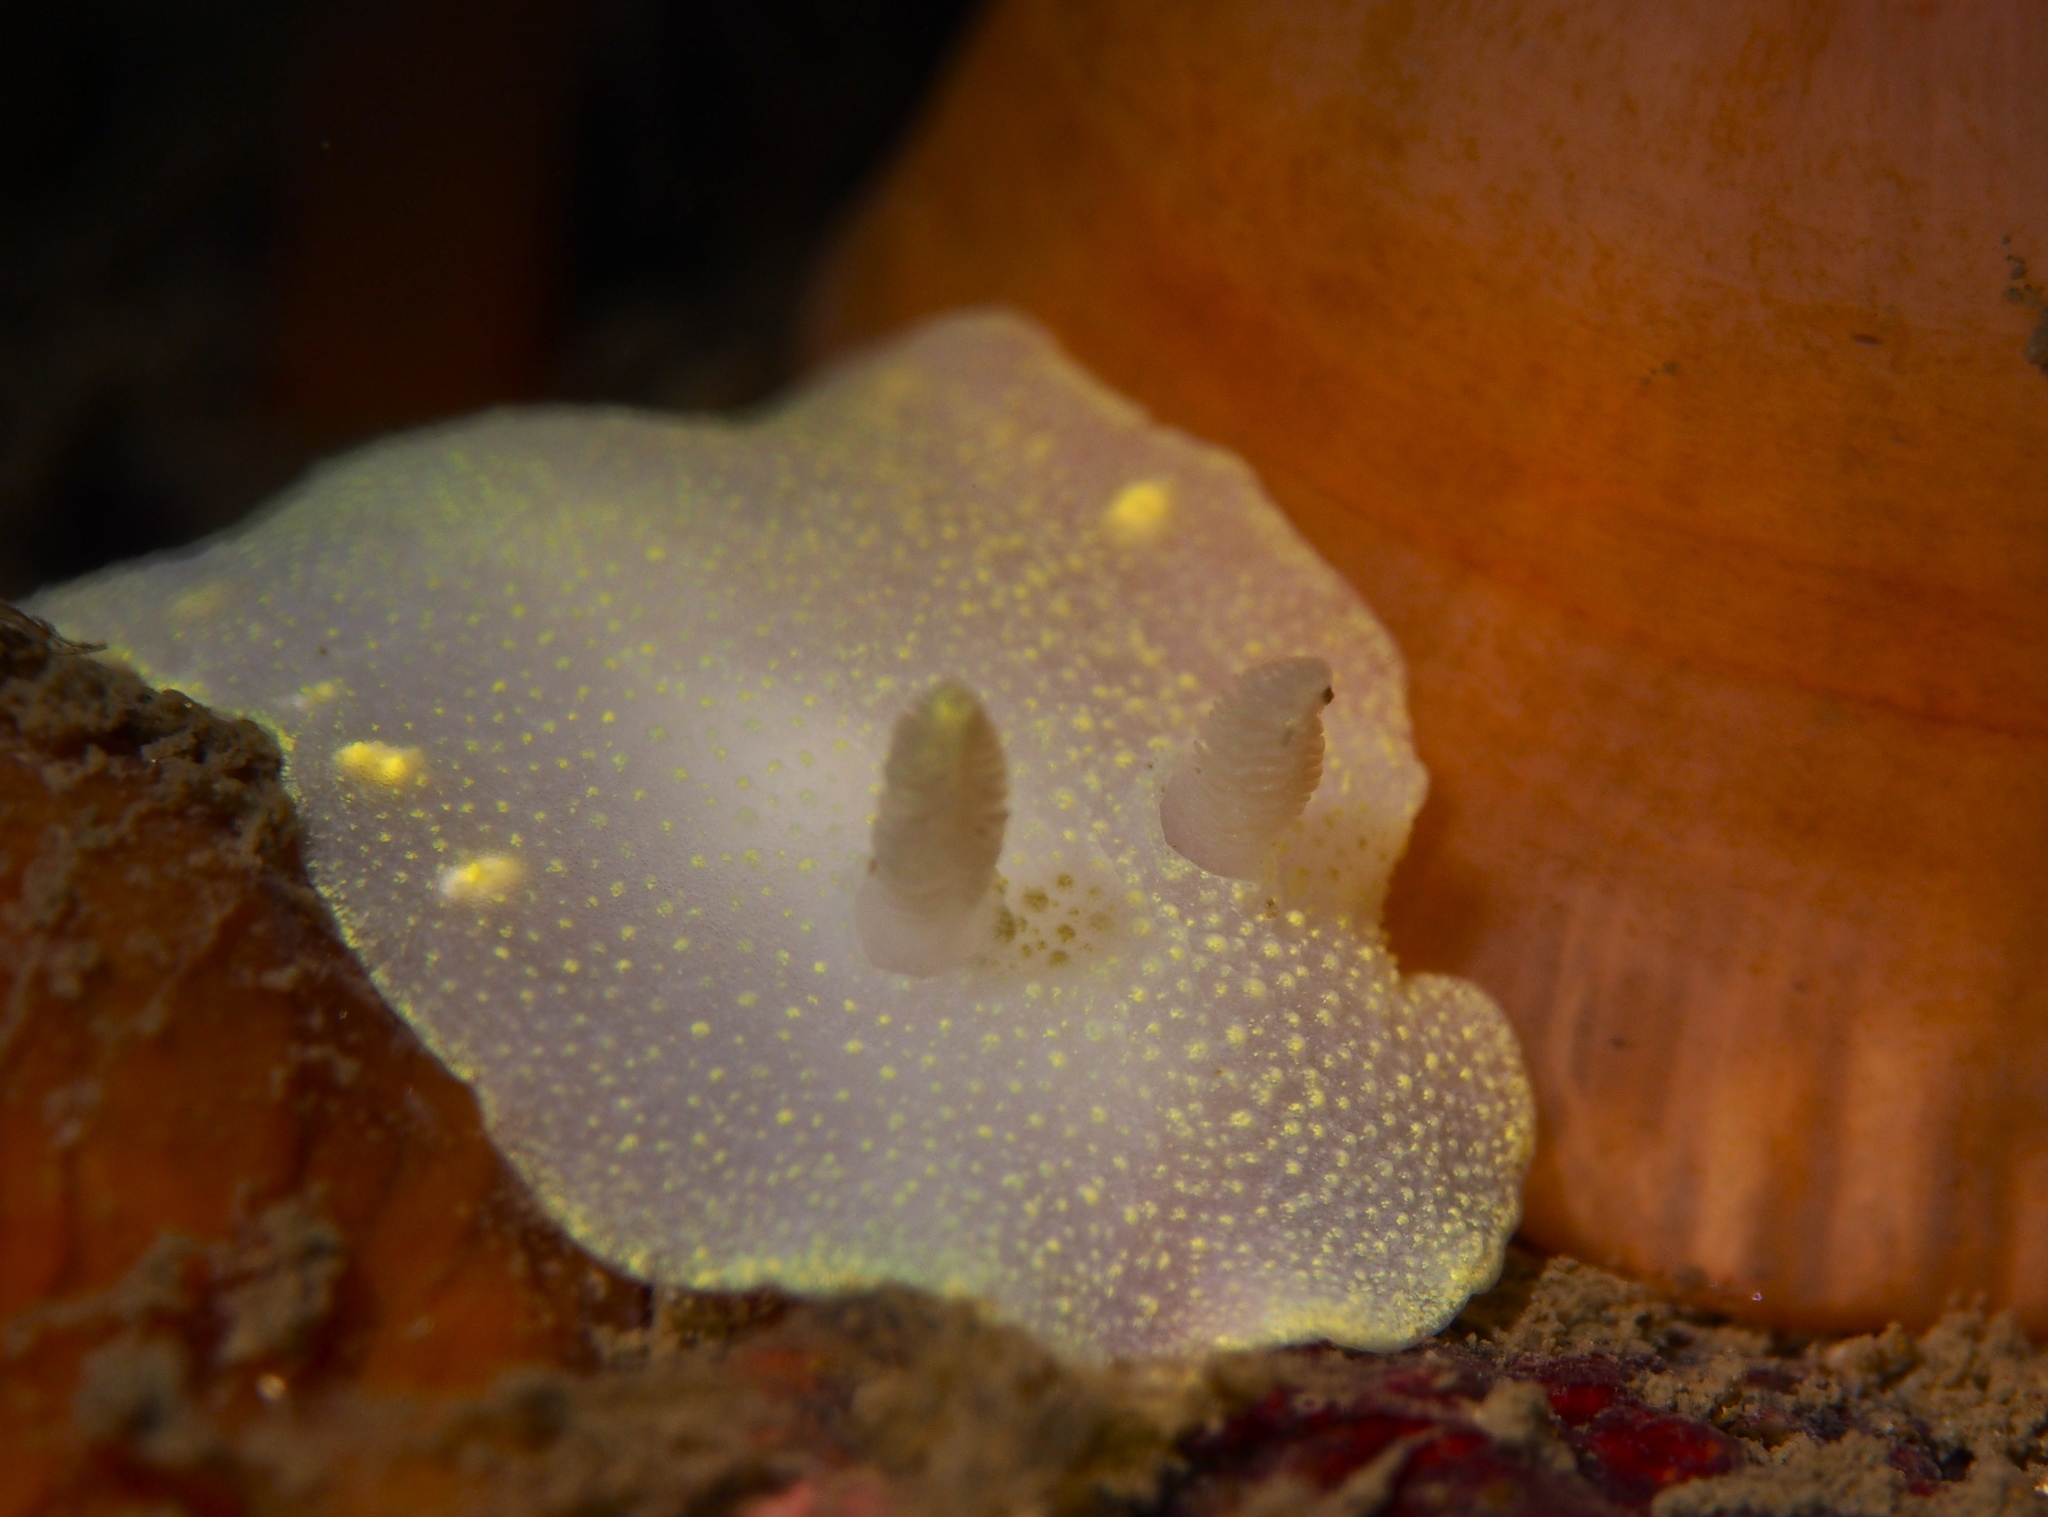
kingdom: Animalia
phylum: Mollusca
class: Gastropoda
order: Nudibranchia
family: Cadlinidae
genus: Cadlina
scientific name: Cadlina laevis
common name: White atlantic cadlina
